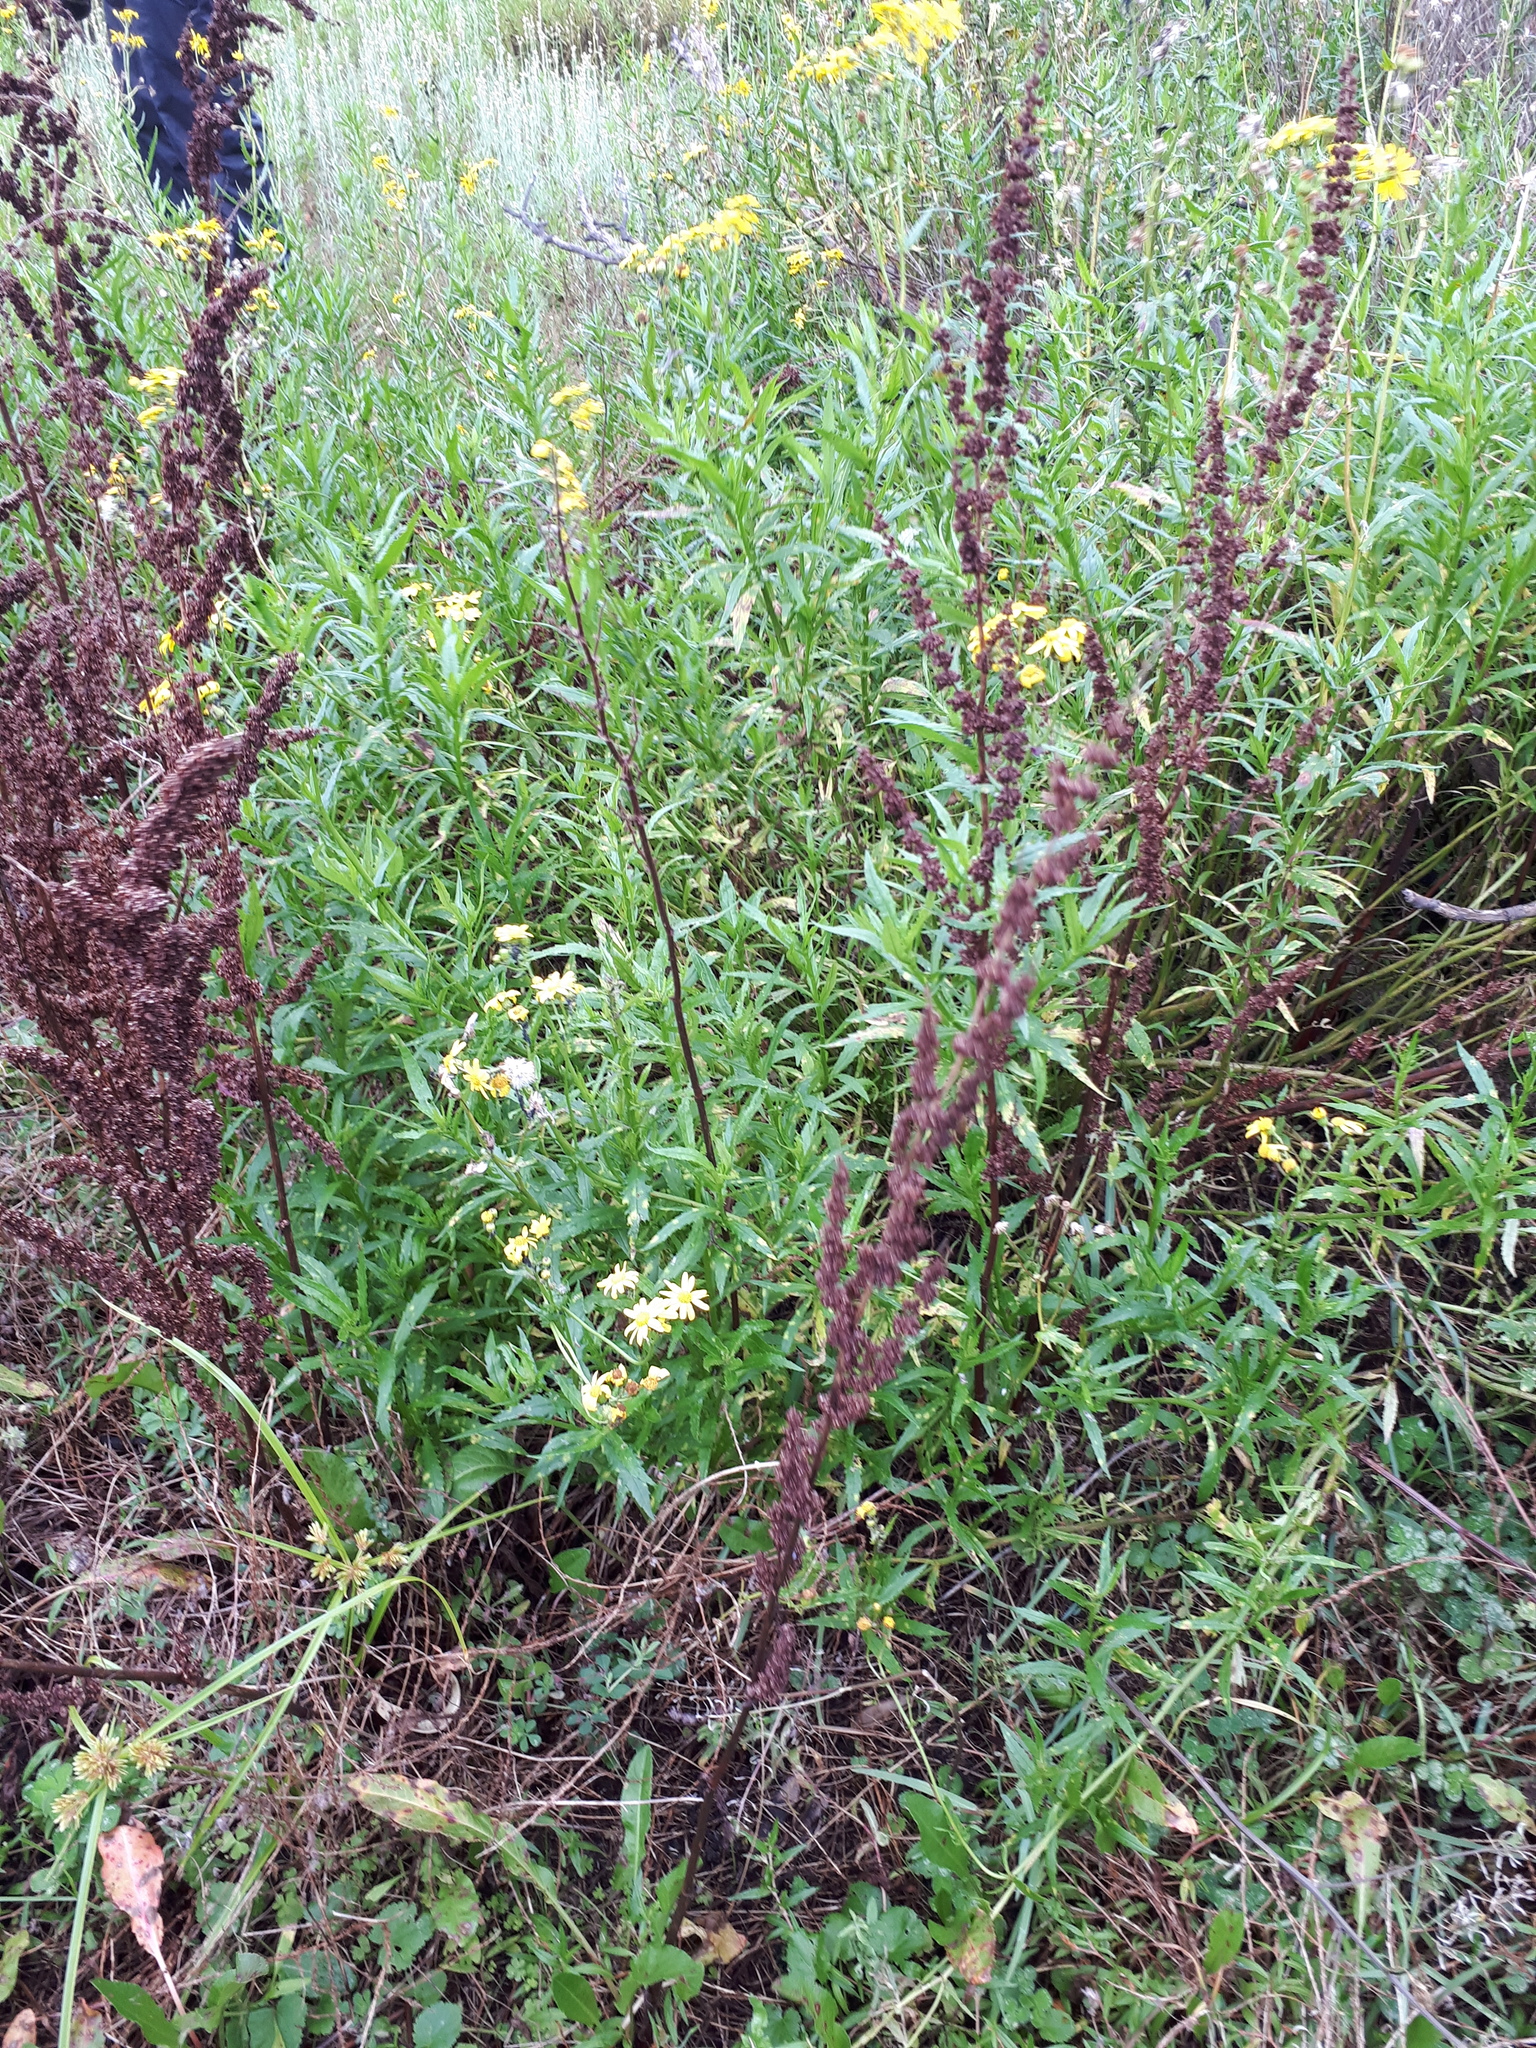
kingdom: Plantae
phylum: Tracheophyta
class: Magnoliopsida
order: Caryophyllales
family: Polygonaceae
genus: Rumex
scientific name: Rumex
